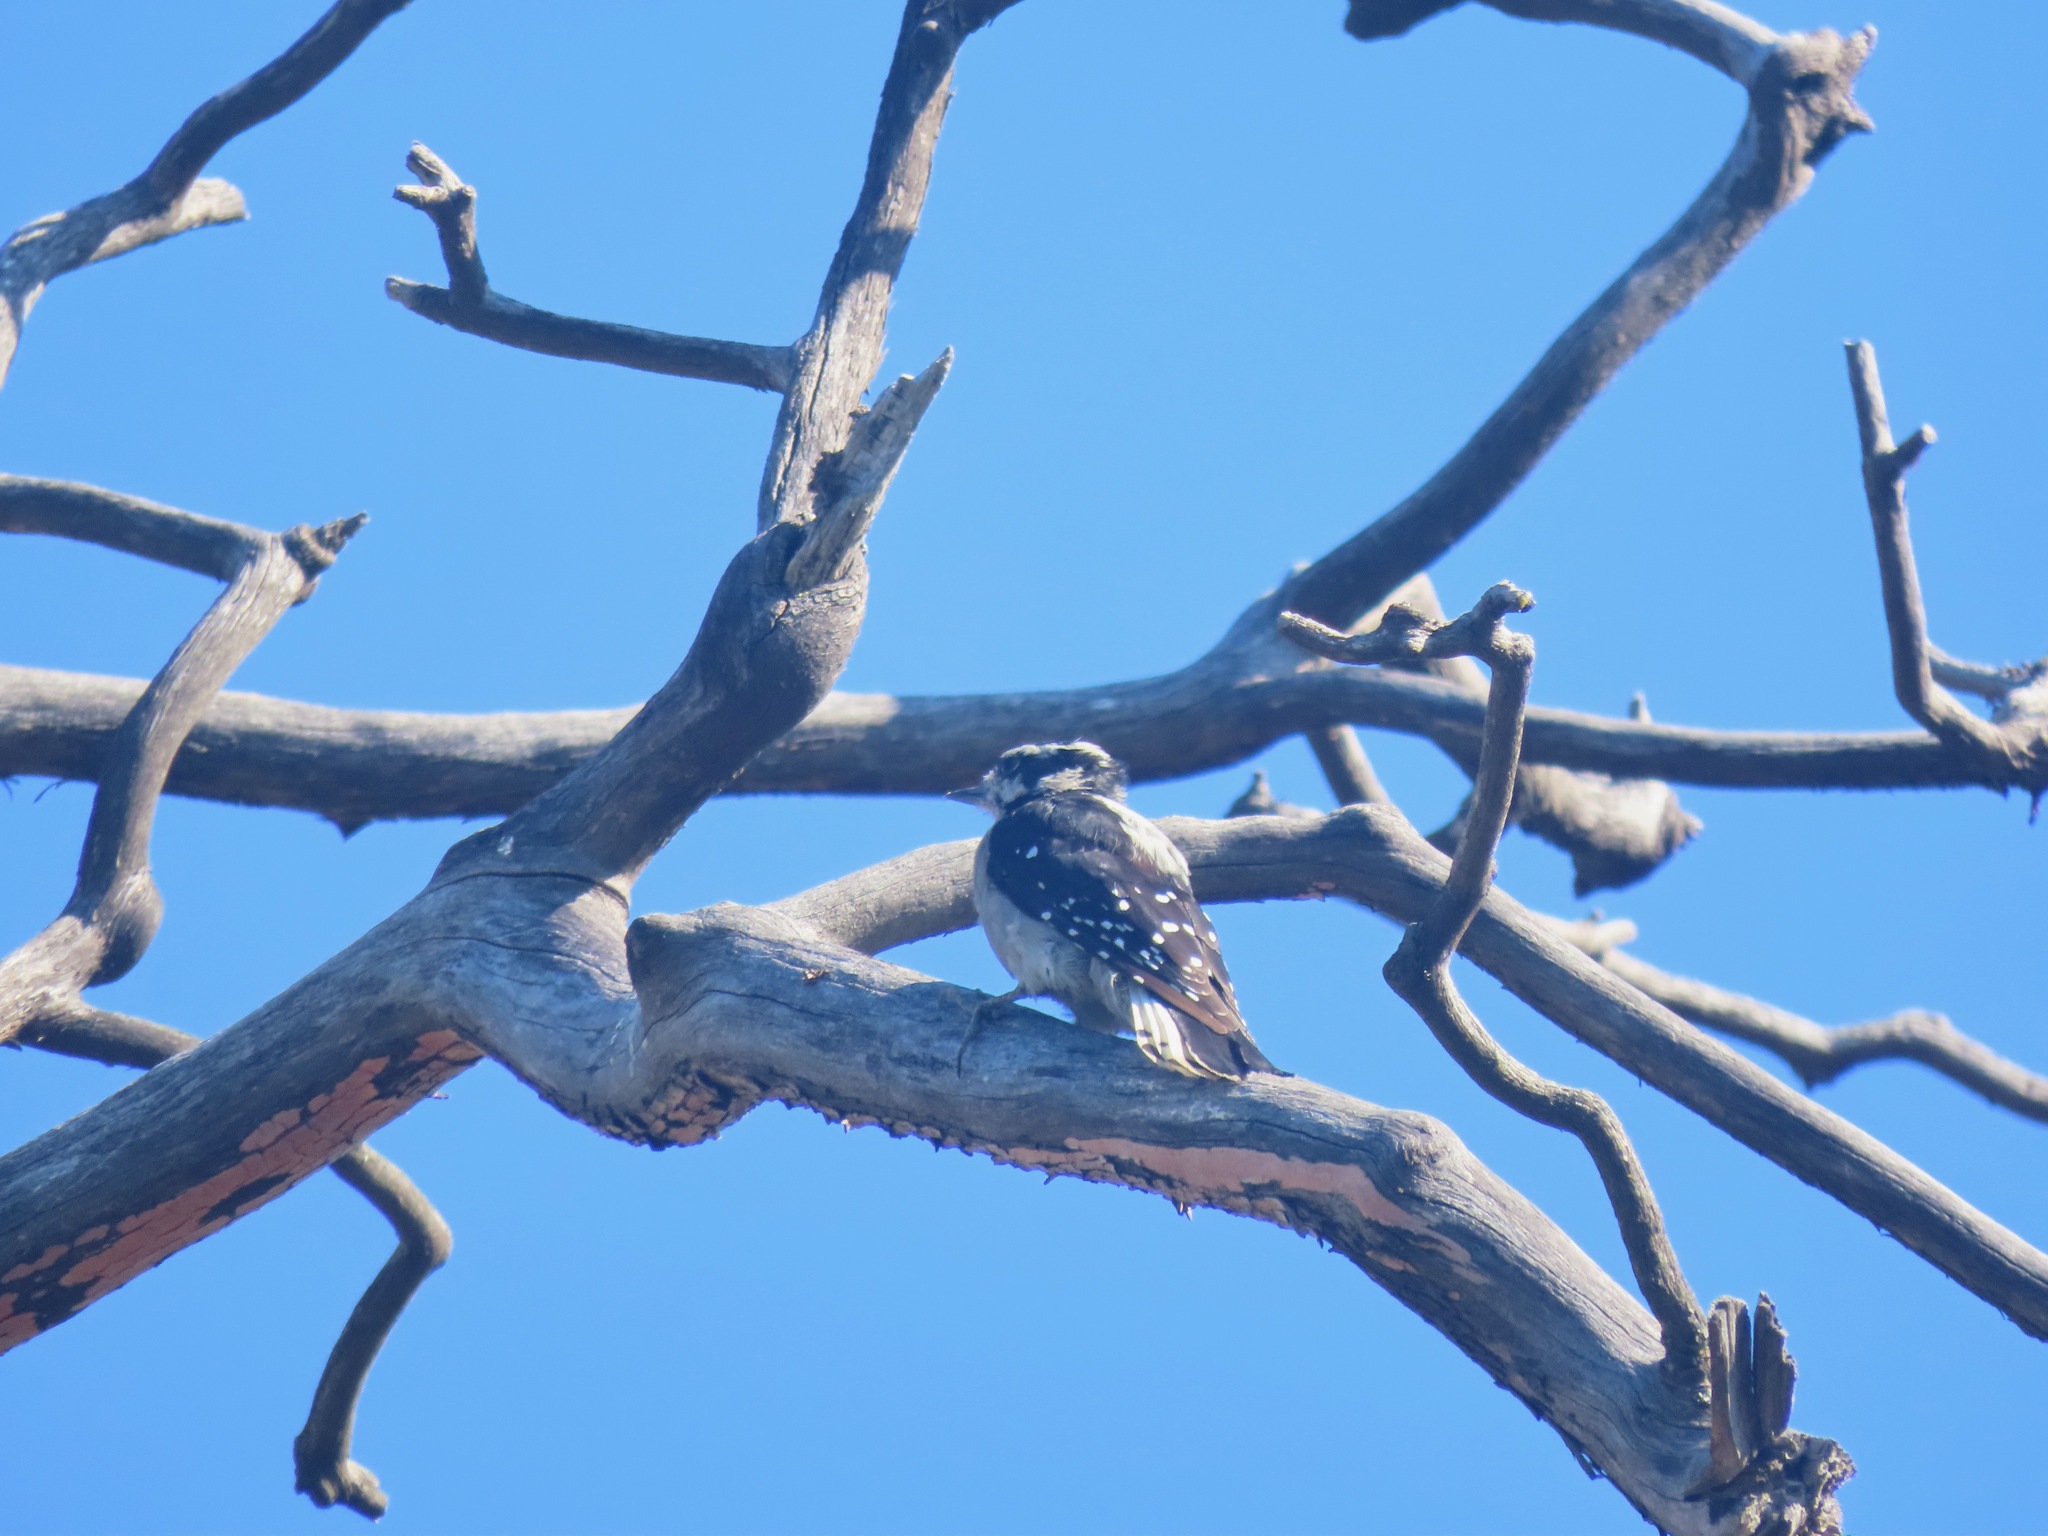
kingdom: Animalia
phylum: Chordata
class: Aves
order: Piciformes
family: Picidae
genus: Dryobates
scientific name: Dryobates pubescens
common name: Downy woodpecker
